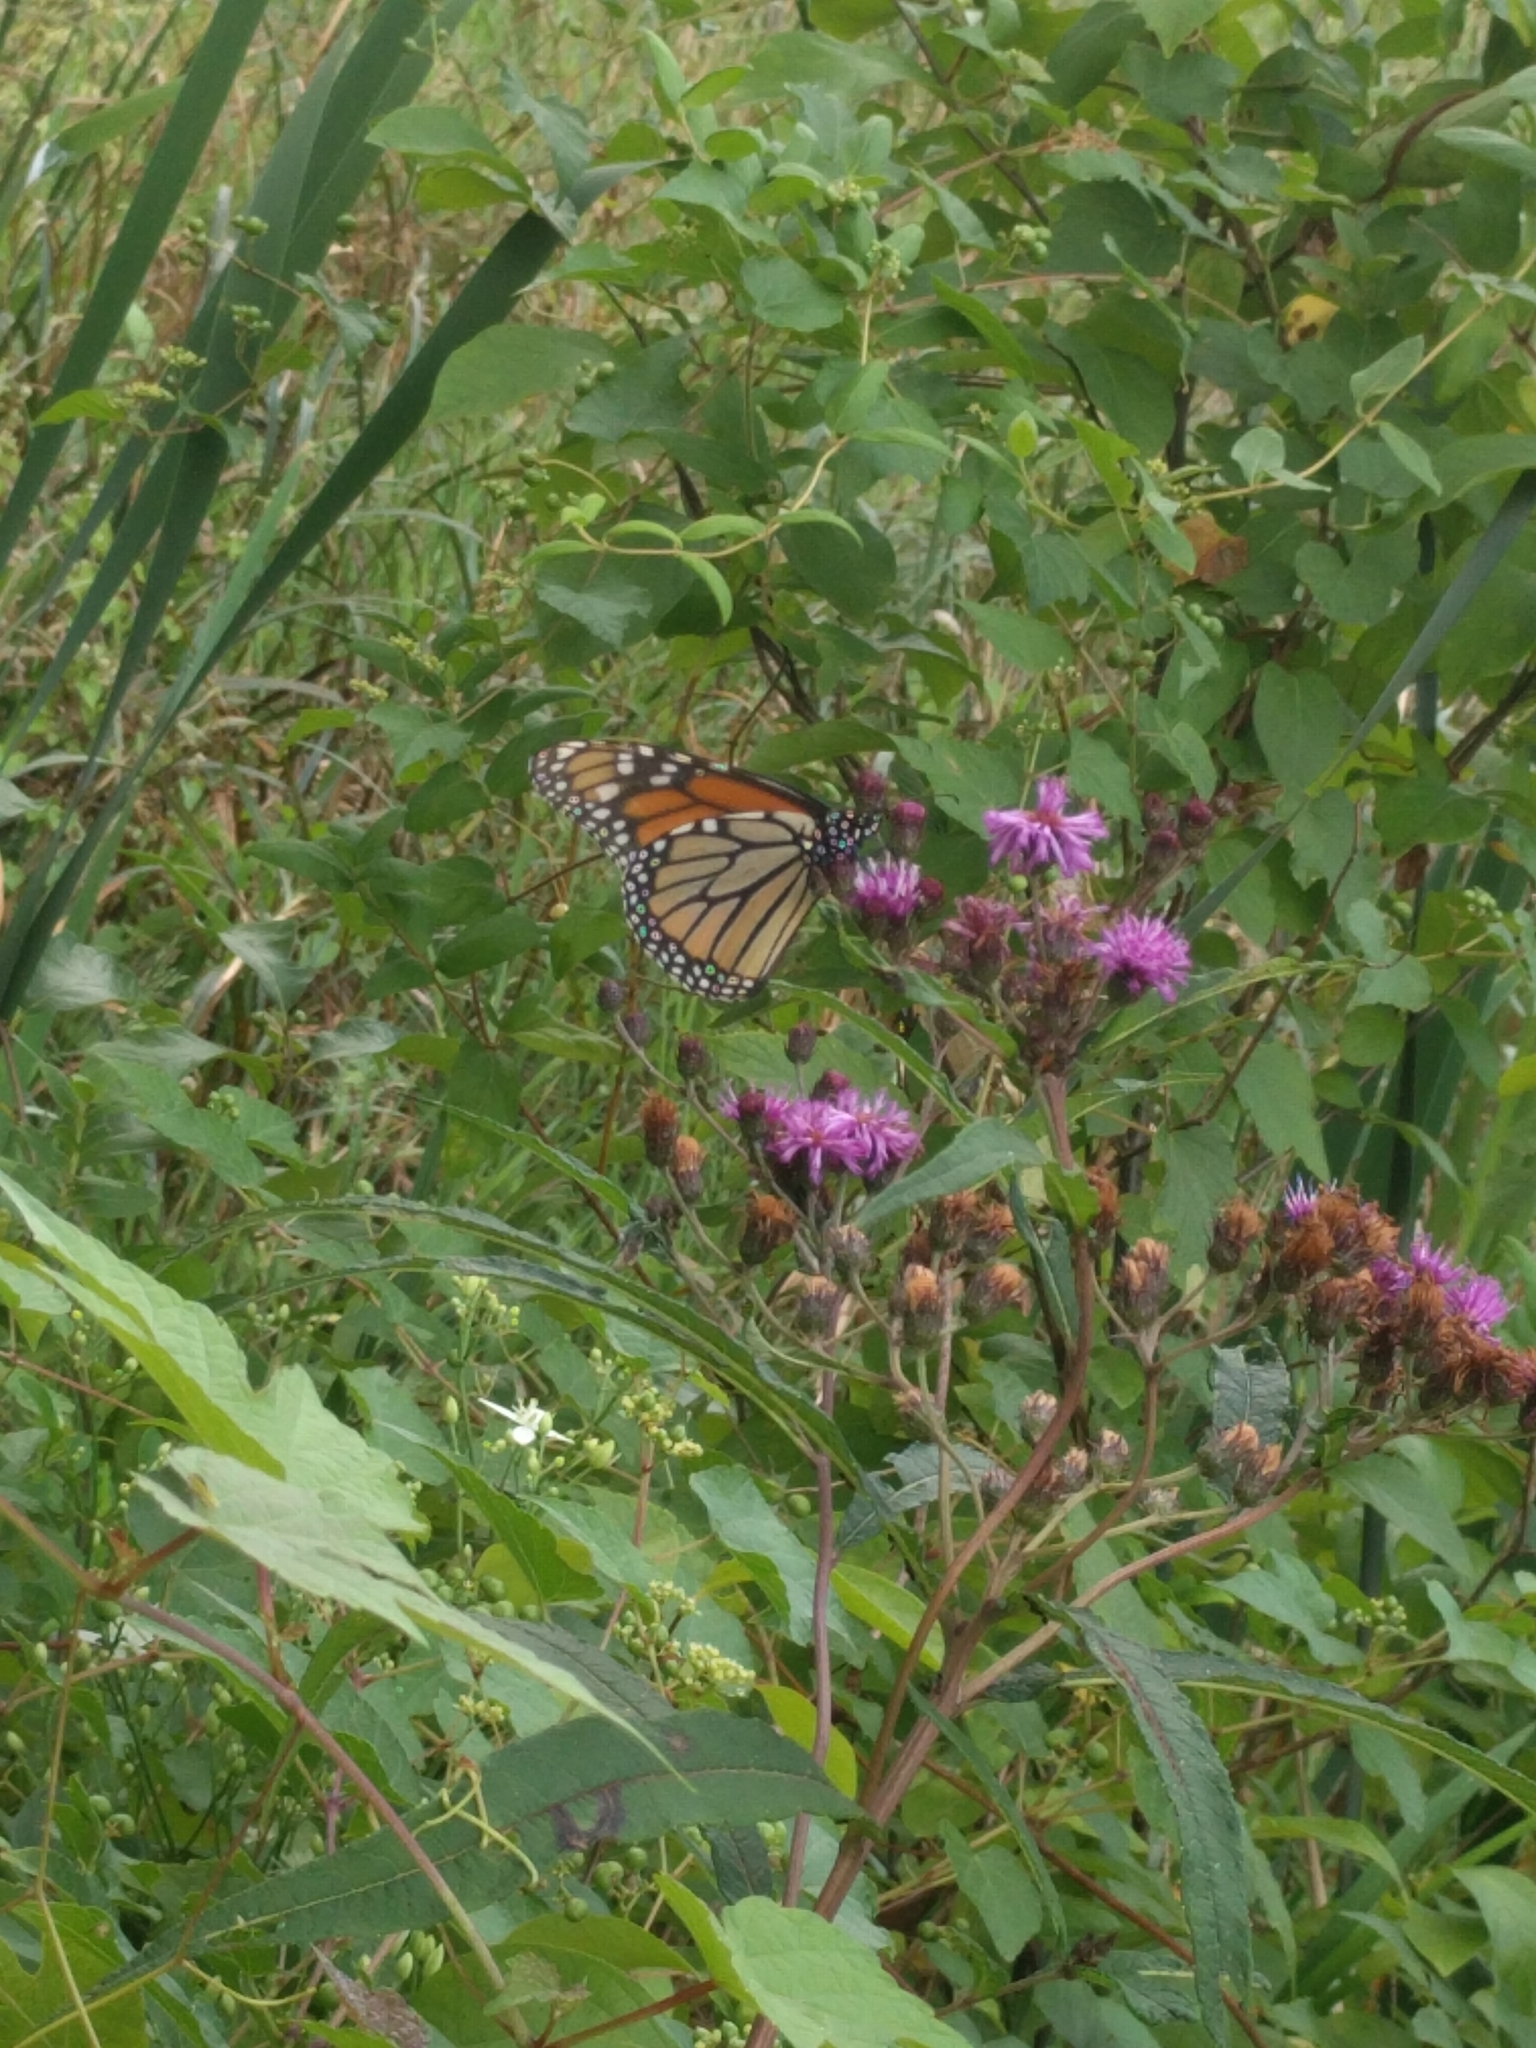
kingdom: Animalia
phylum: Arthropoda
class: Insecta
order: Lepidoptera
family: Nymphalidae
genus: Danaus
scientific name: Danaus plexippus
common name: Monarch
